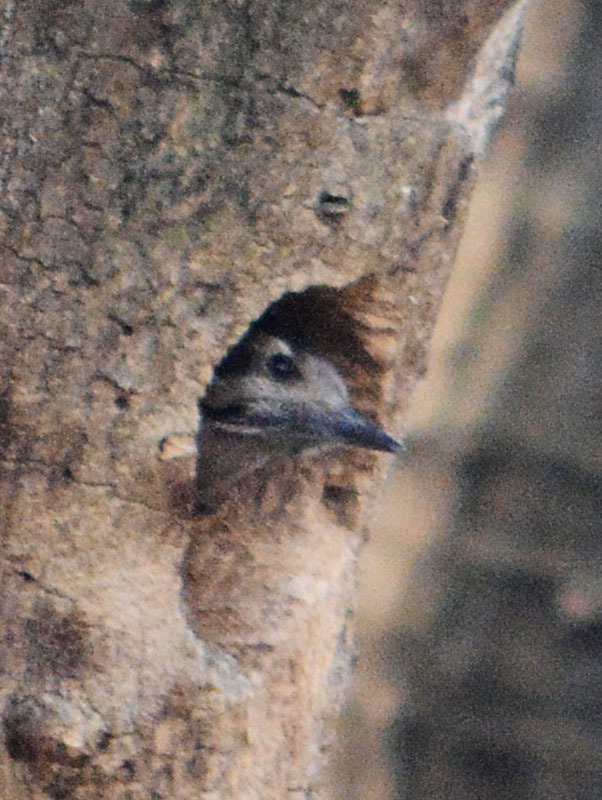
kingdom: Animalia
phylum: Chordata
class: Aves
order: Piciformes
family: Picidae
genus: Dryobates
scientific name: Dryobates scalaris
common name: Ladder-backed woodpecker
